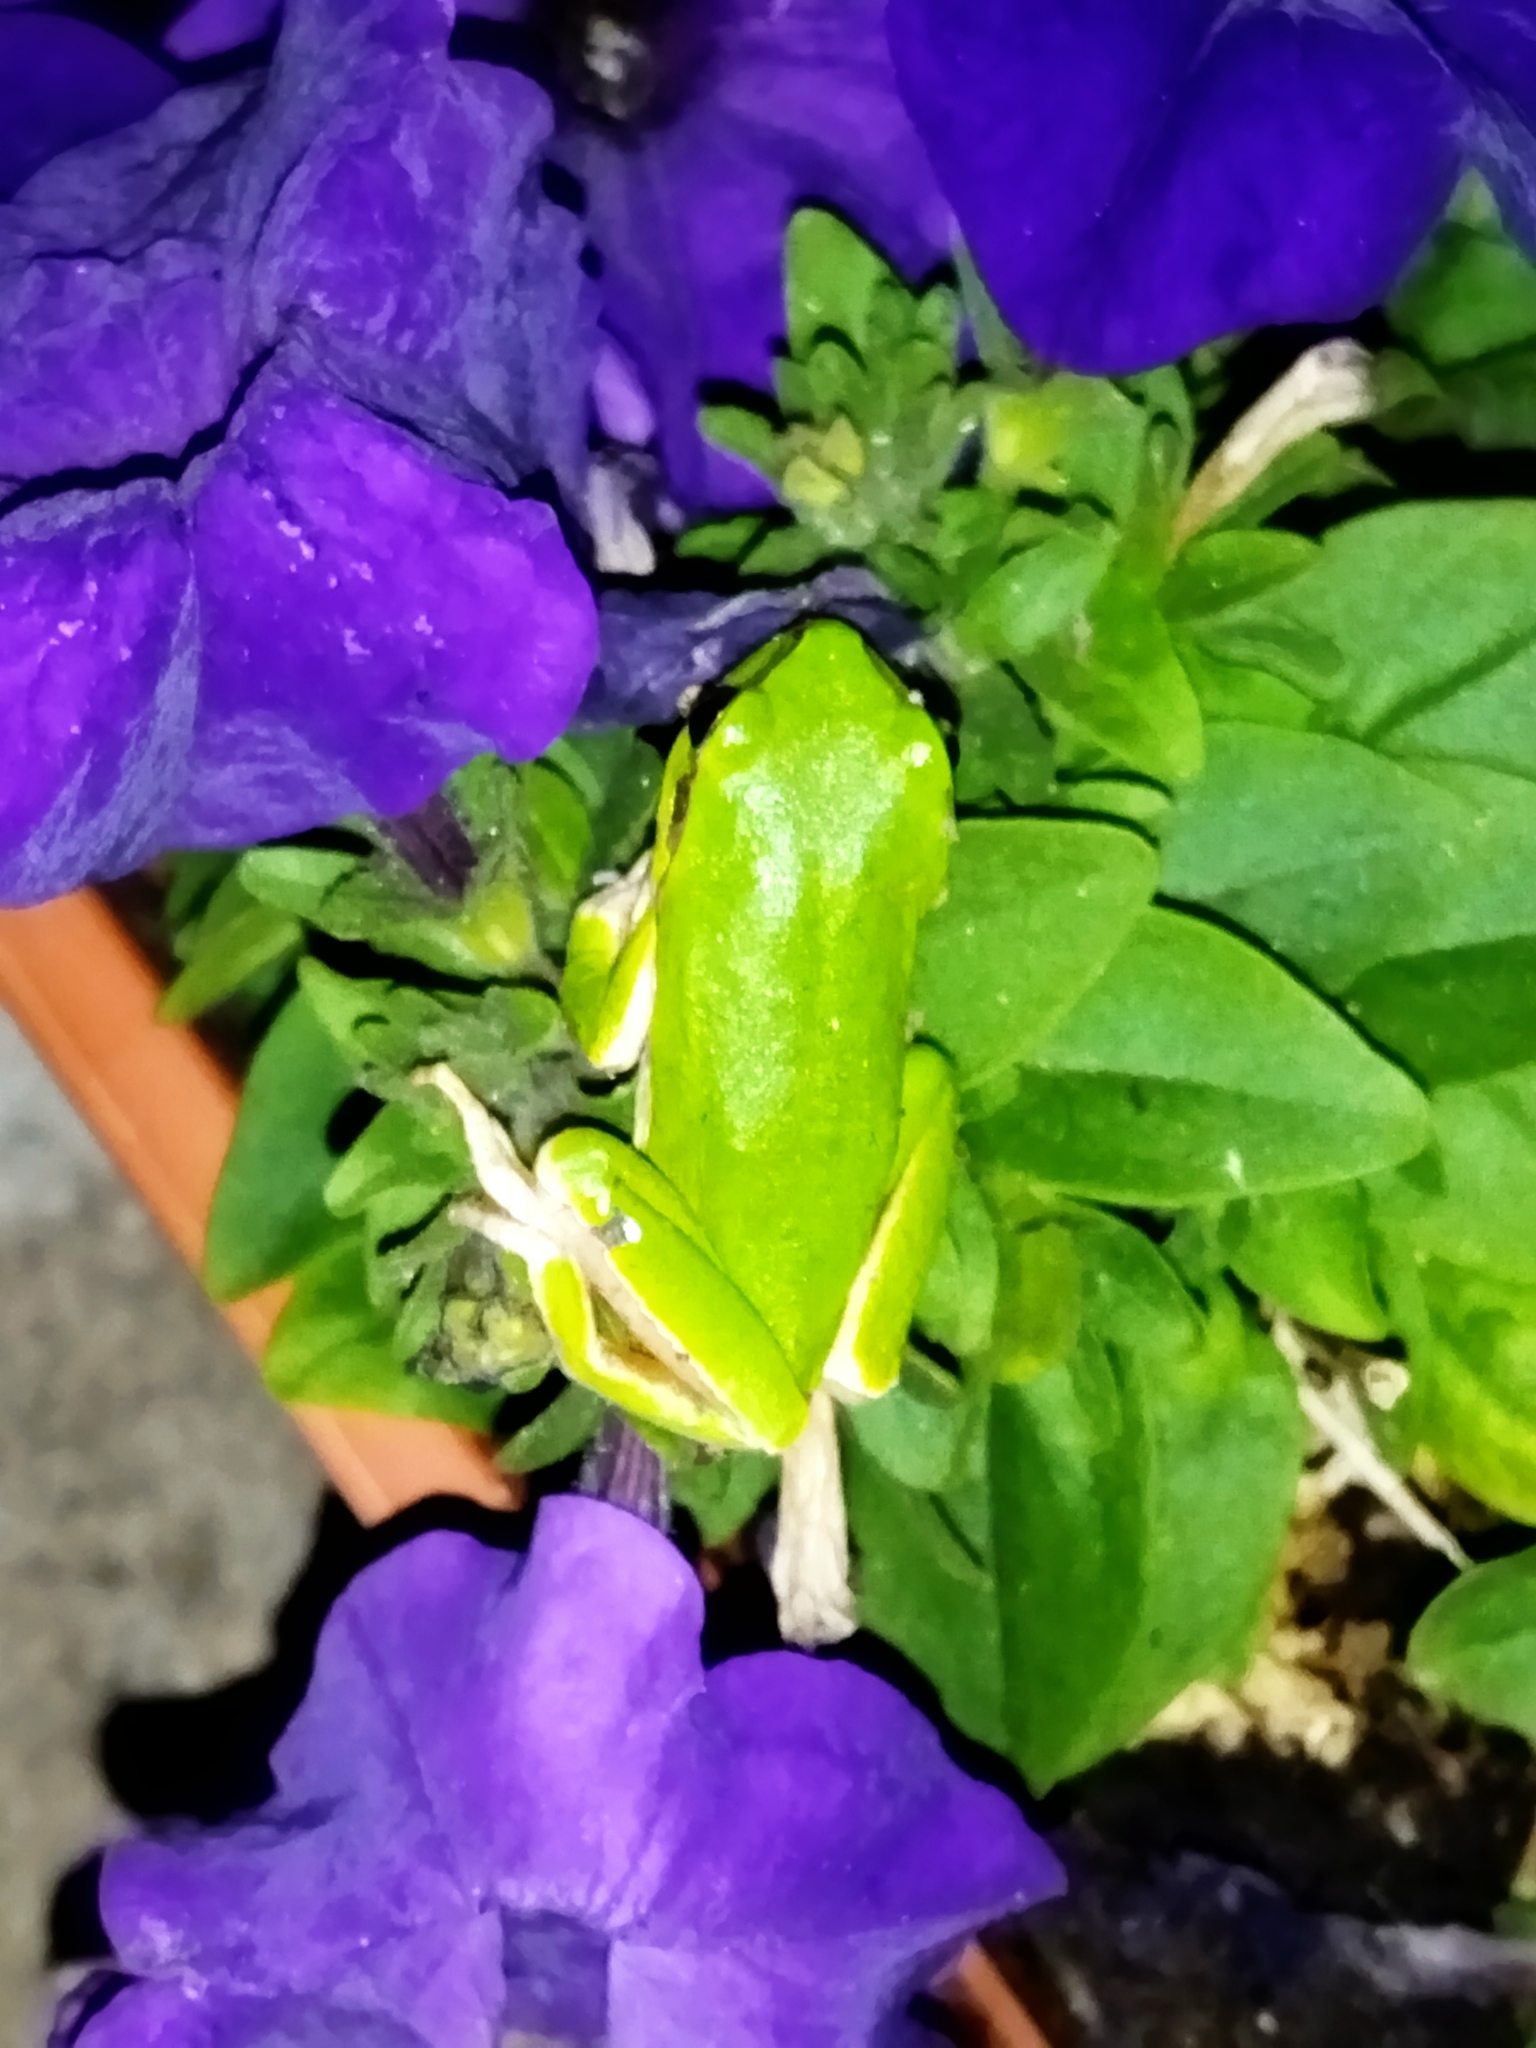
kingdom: Animalia
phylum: Chordata
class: Amphibia
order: Anura
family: Hylidae
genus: Hyla
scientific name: Hyla orientalis
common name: Caucasian treefrog
